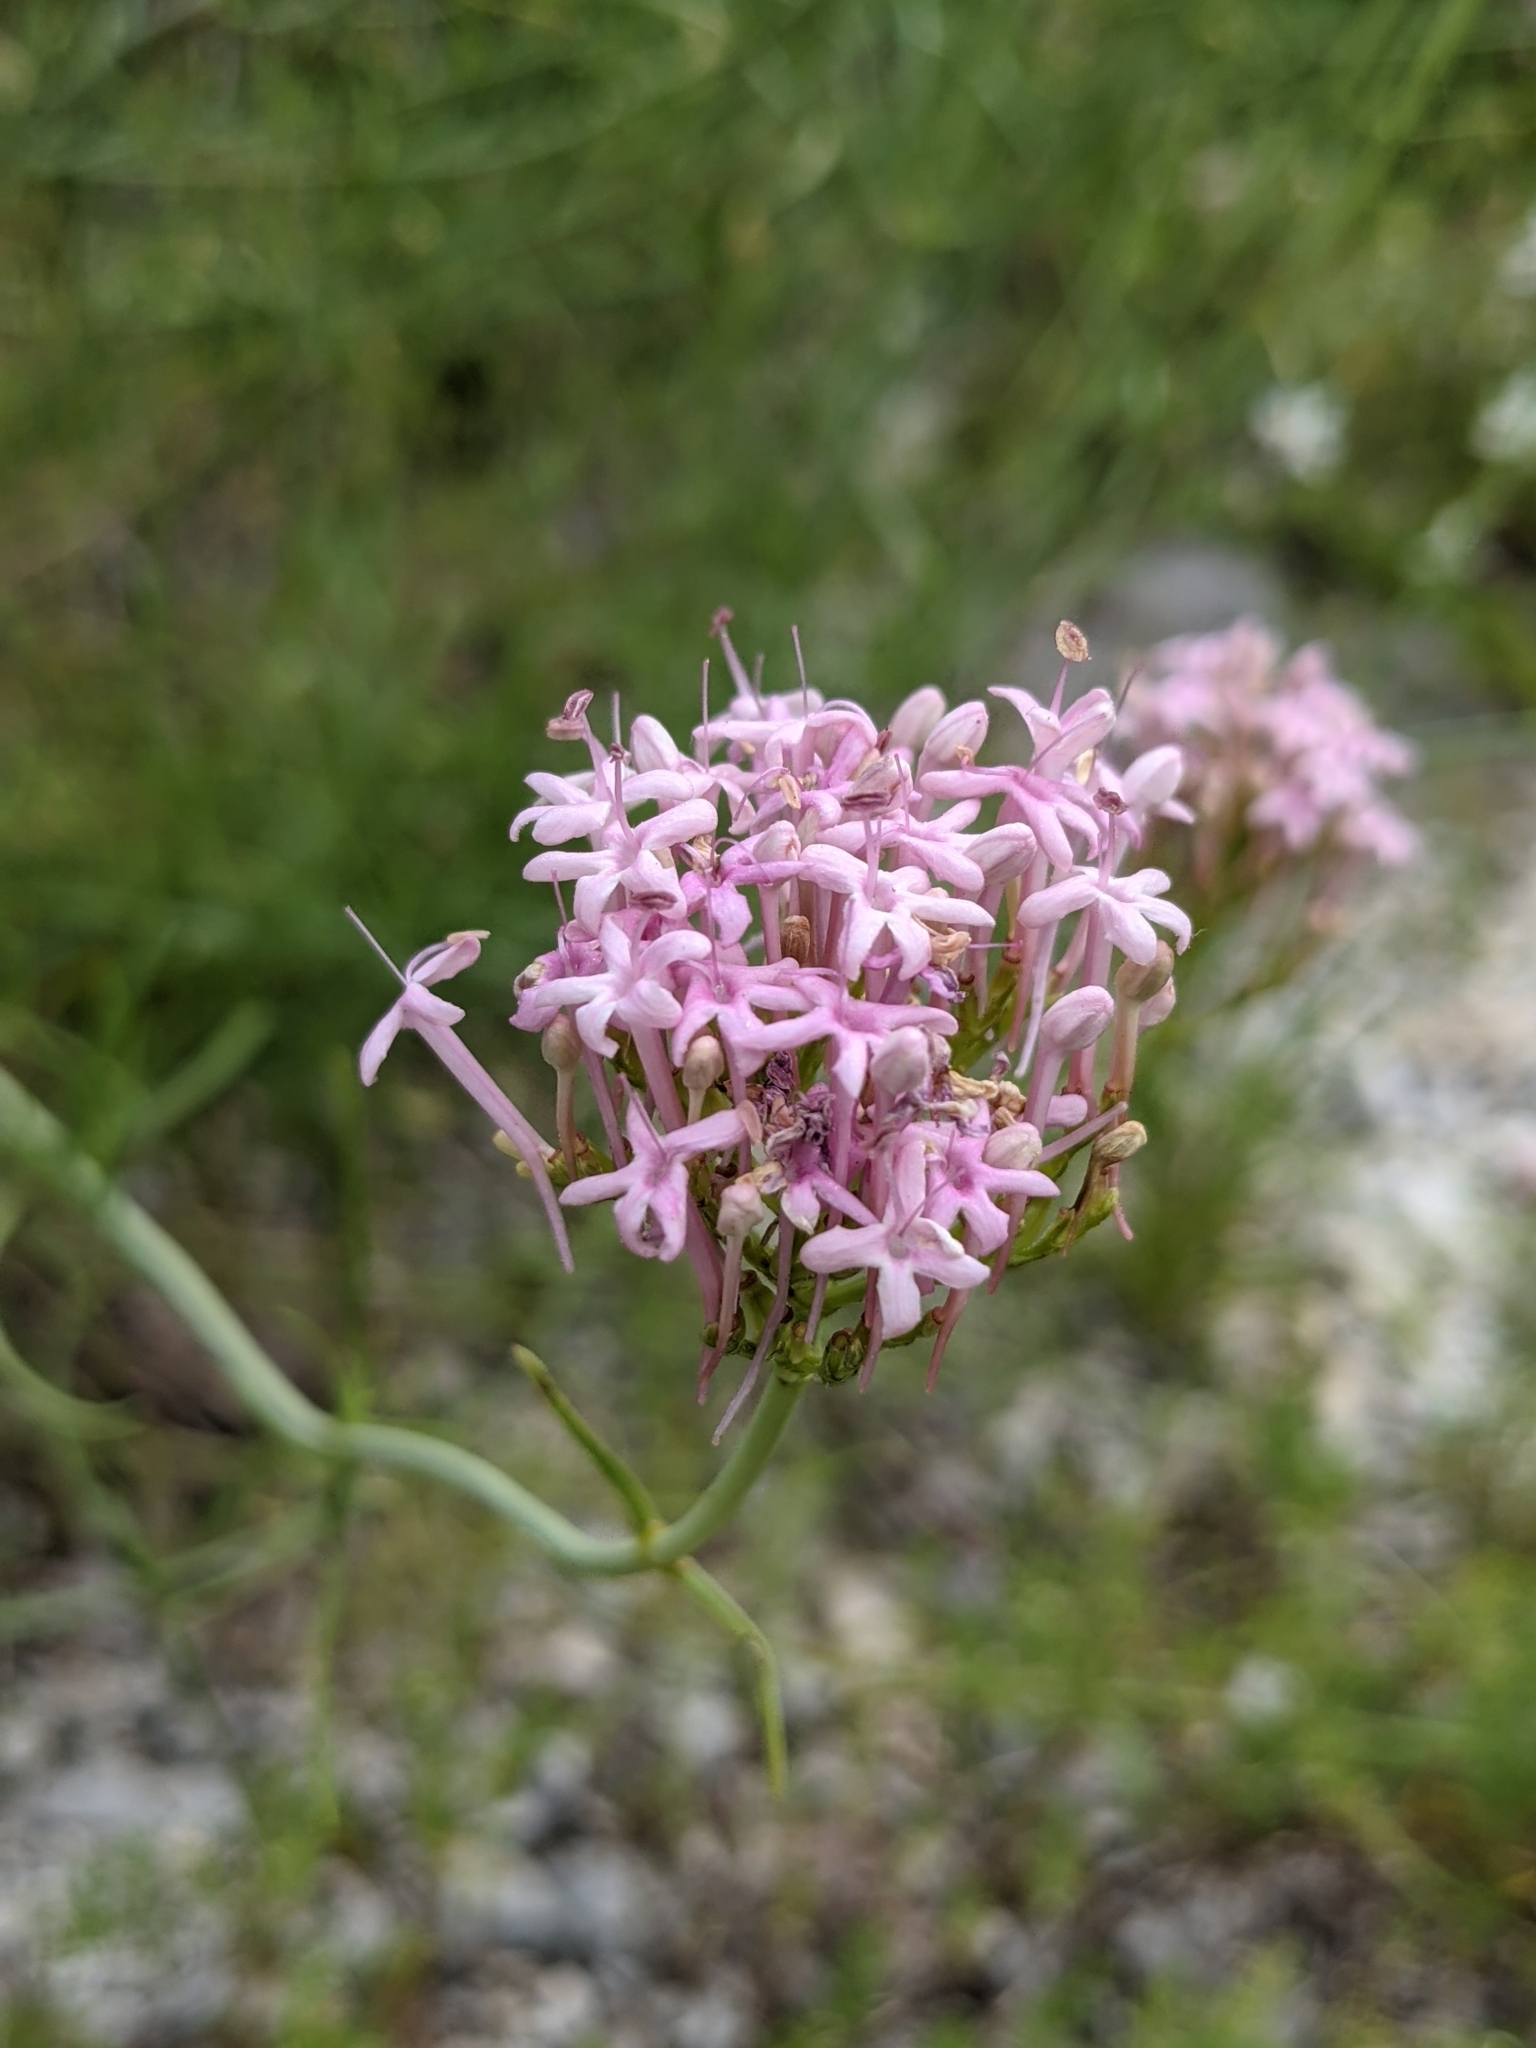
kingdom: Plantae
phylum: Tracheophyta
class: Magnoliopsida
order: Dipsacales
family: Caprifoliaceae
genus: Centranthus
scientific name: Centranthus angustifolius
